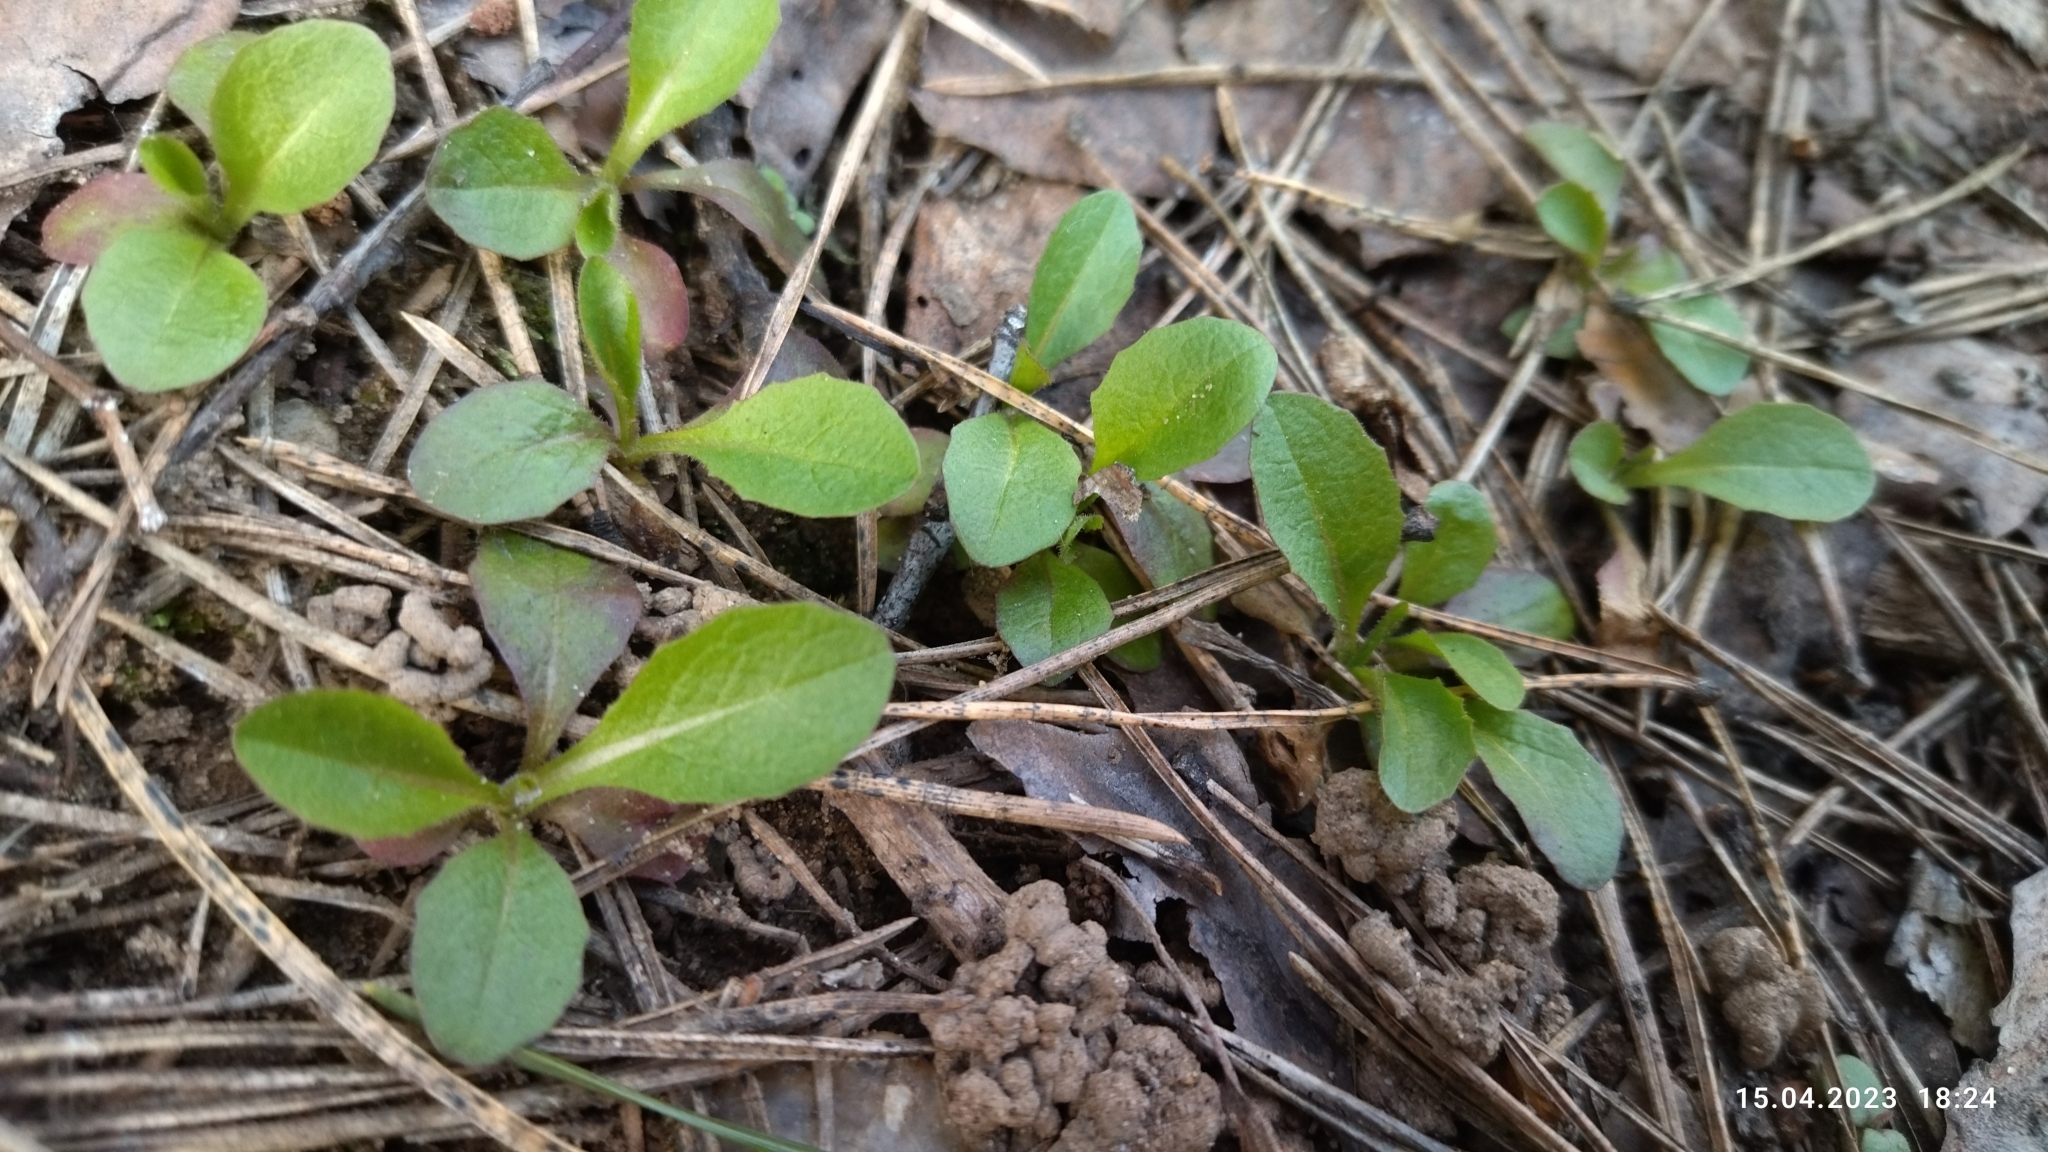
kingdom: Plantae
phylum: Tracheophyta
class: Magnoliopsida
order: Boraginales
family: Boraginaceae
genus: Myosotis
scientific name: Myosotis sparsiflora
